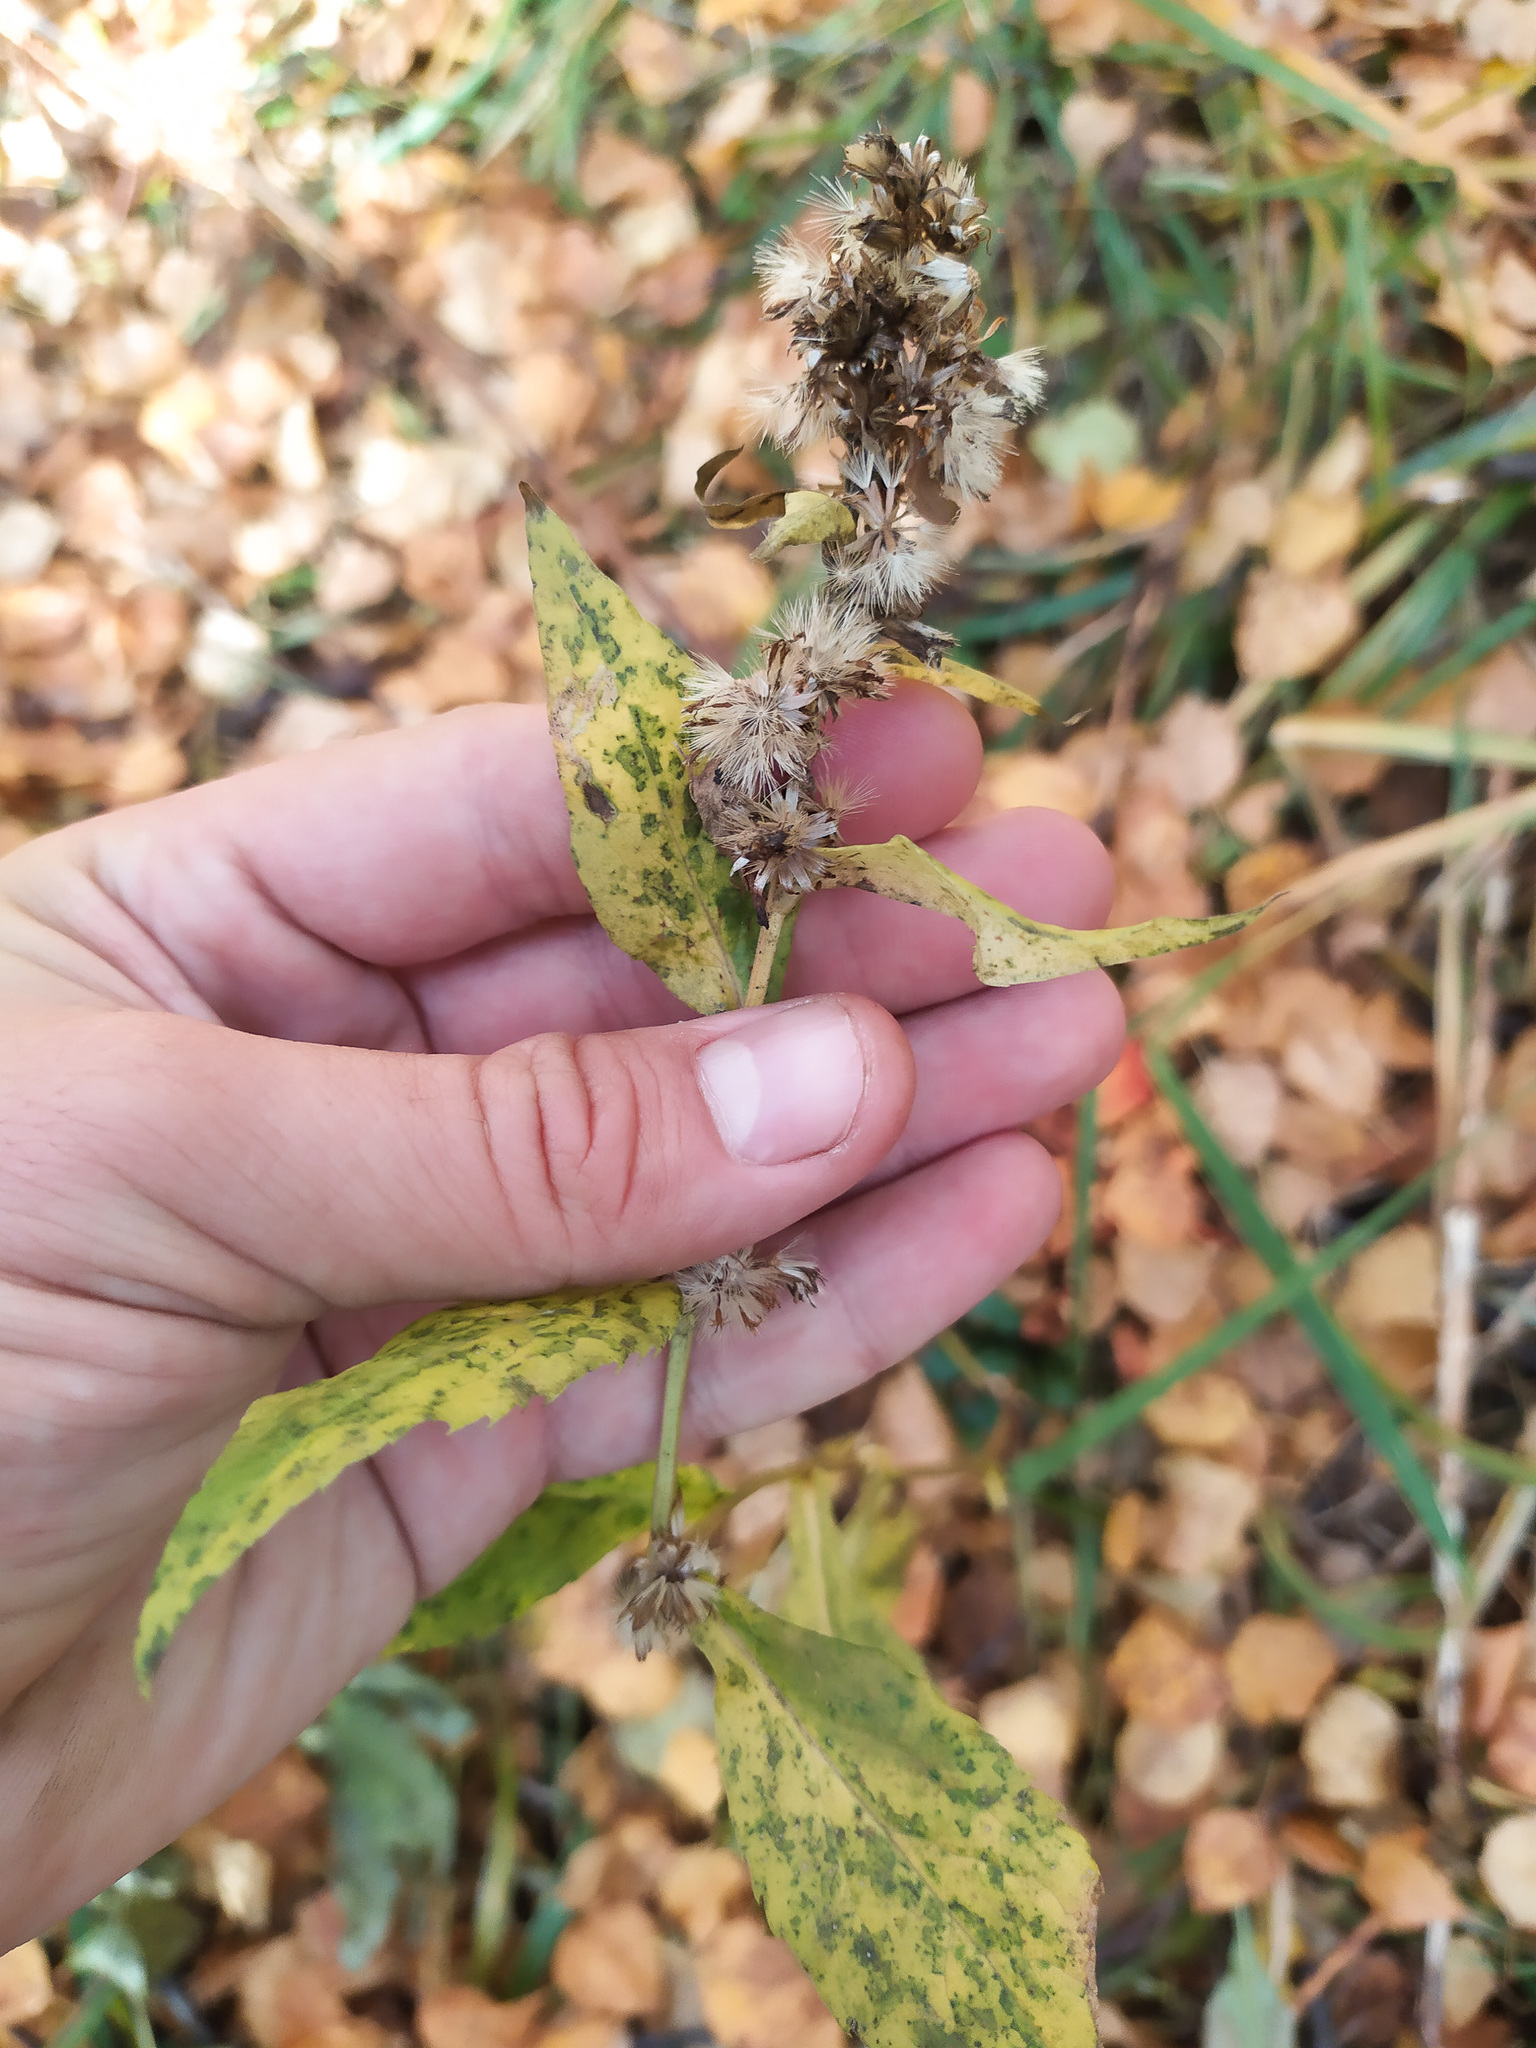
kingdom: Plantae
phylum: Tracheophyta
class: Magnoliopsida
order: Asterales
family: Asteraceae
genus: Solidago
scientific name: Solidago virgaurea
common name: Goldenrod
